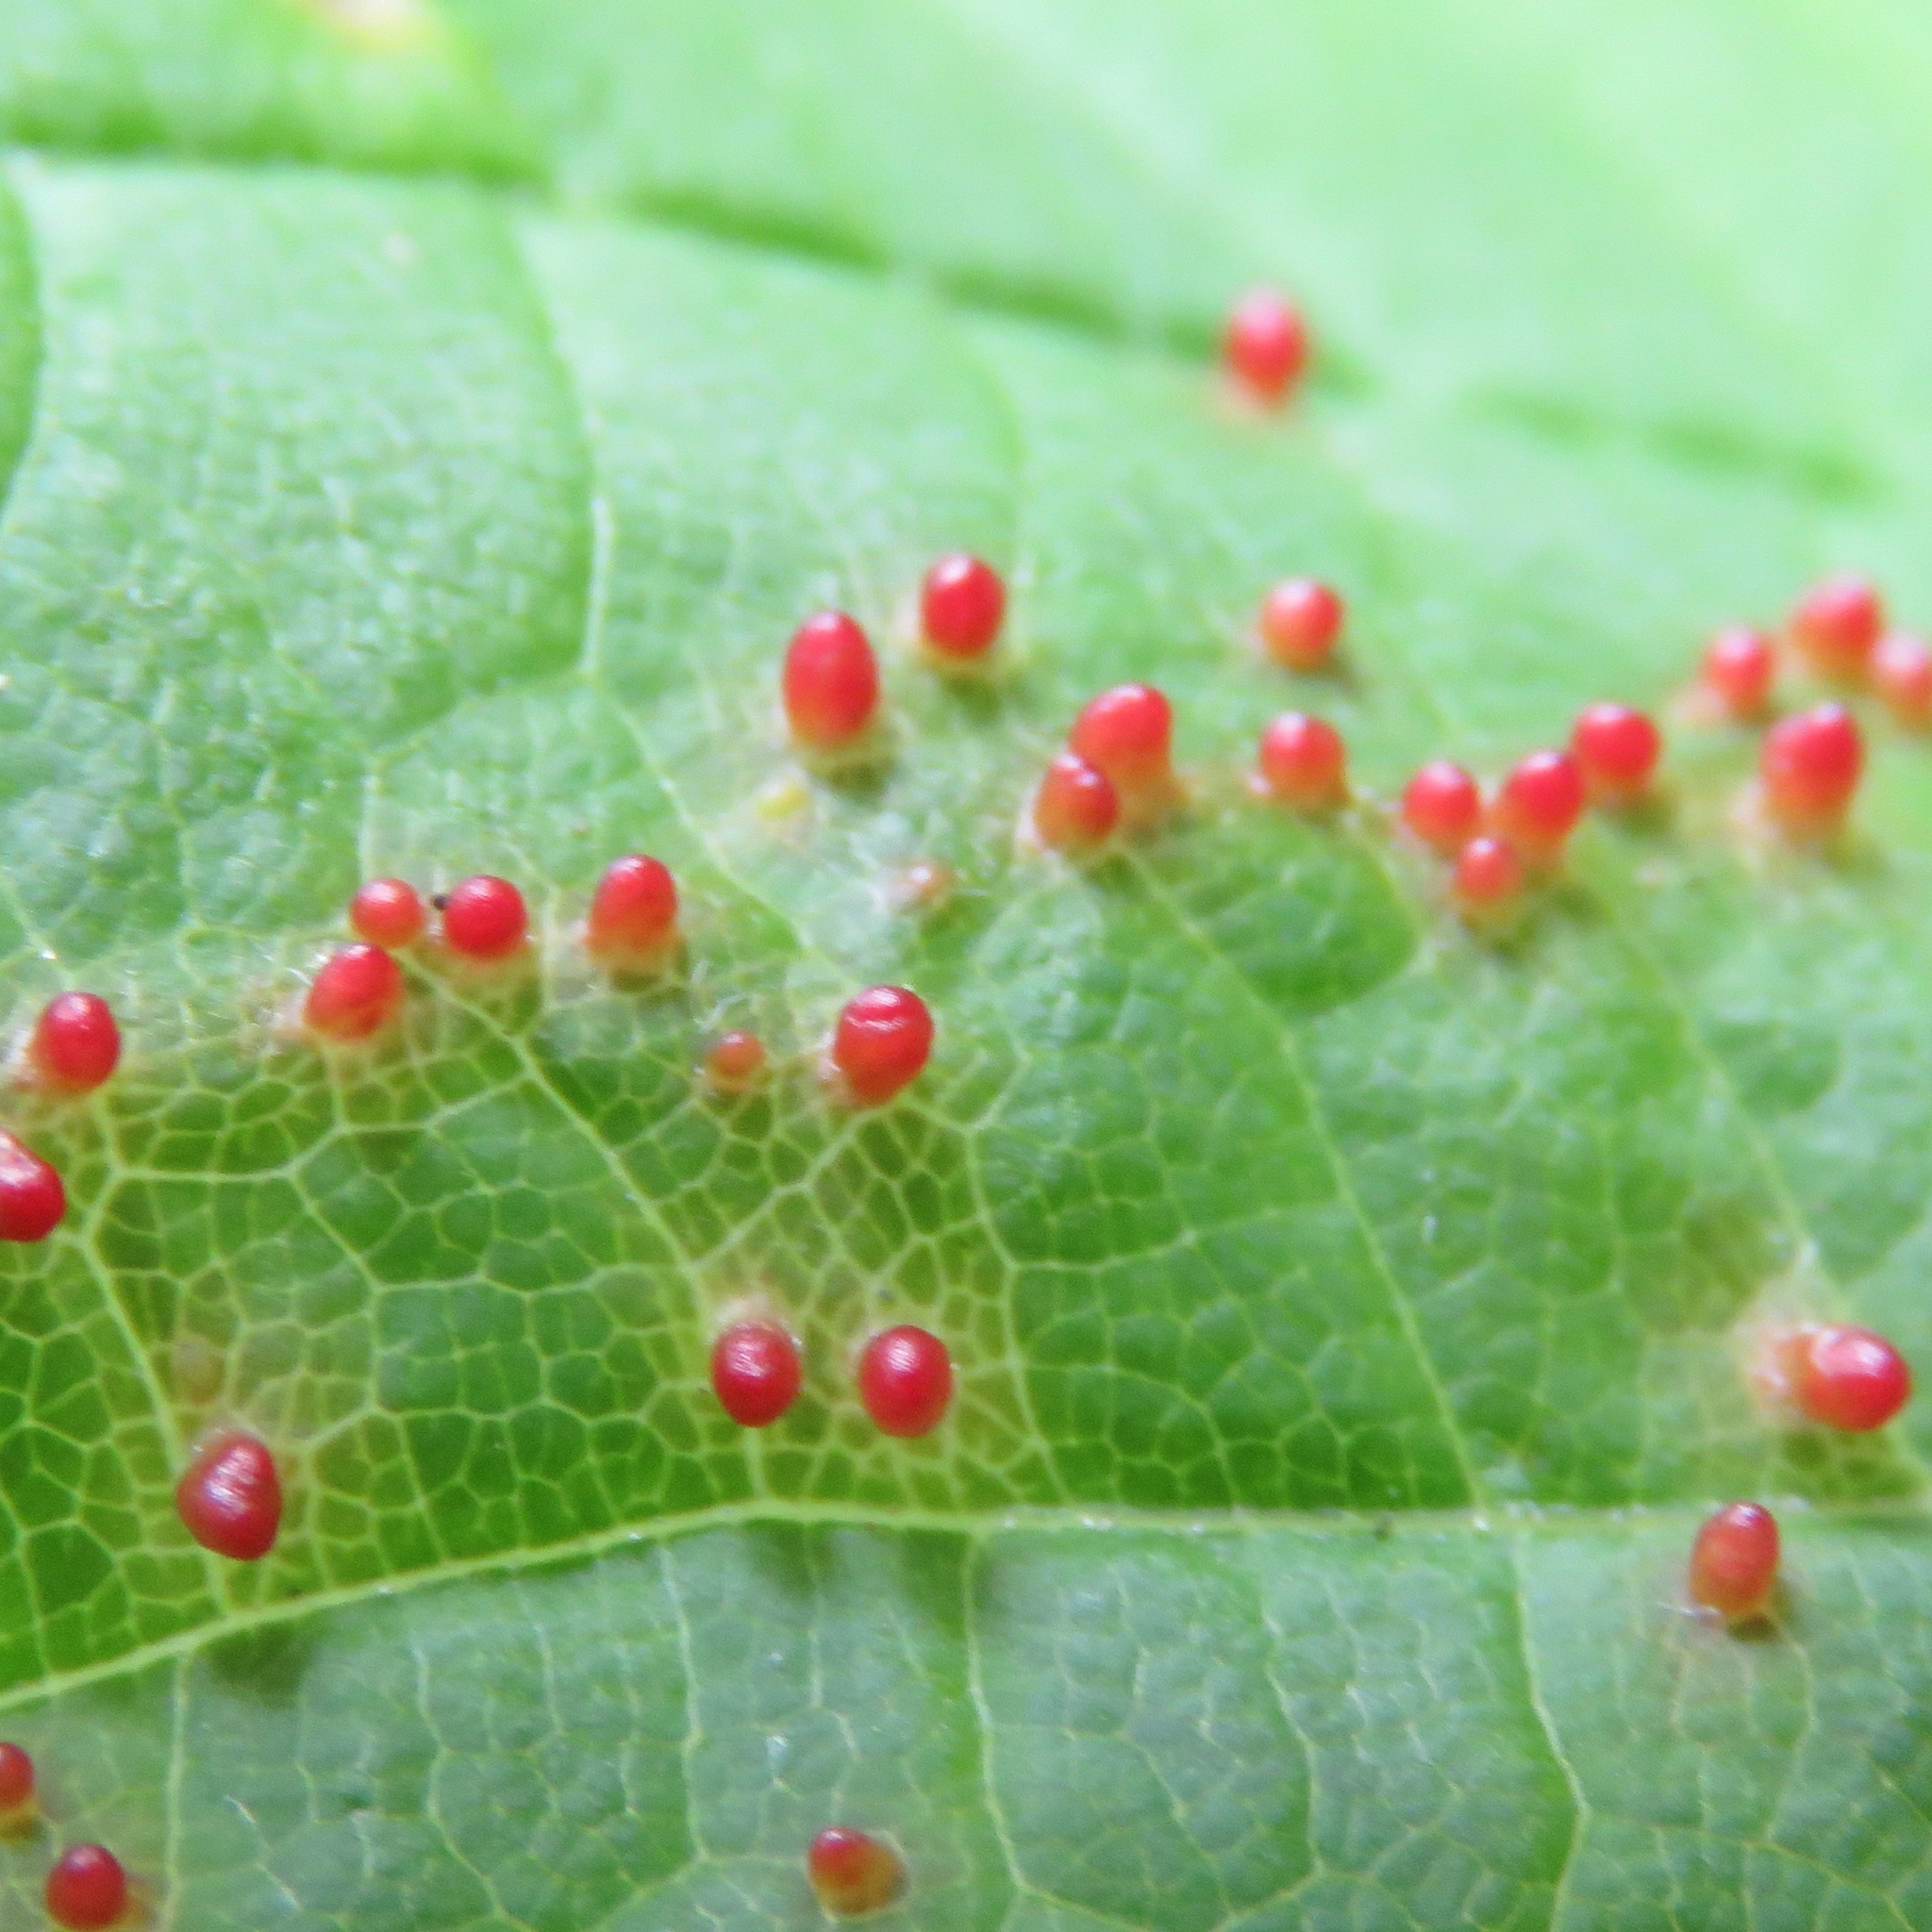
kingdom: Animalia
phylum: Arthropoda
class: Arachnida
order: Trombidiformes
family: Eriophyidae
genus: Aceria
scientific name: Aceria cephaloneus
